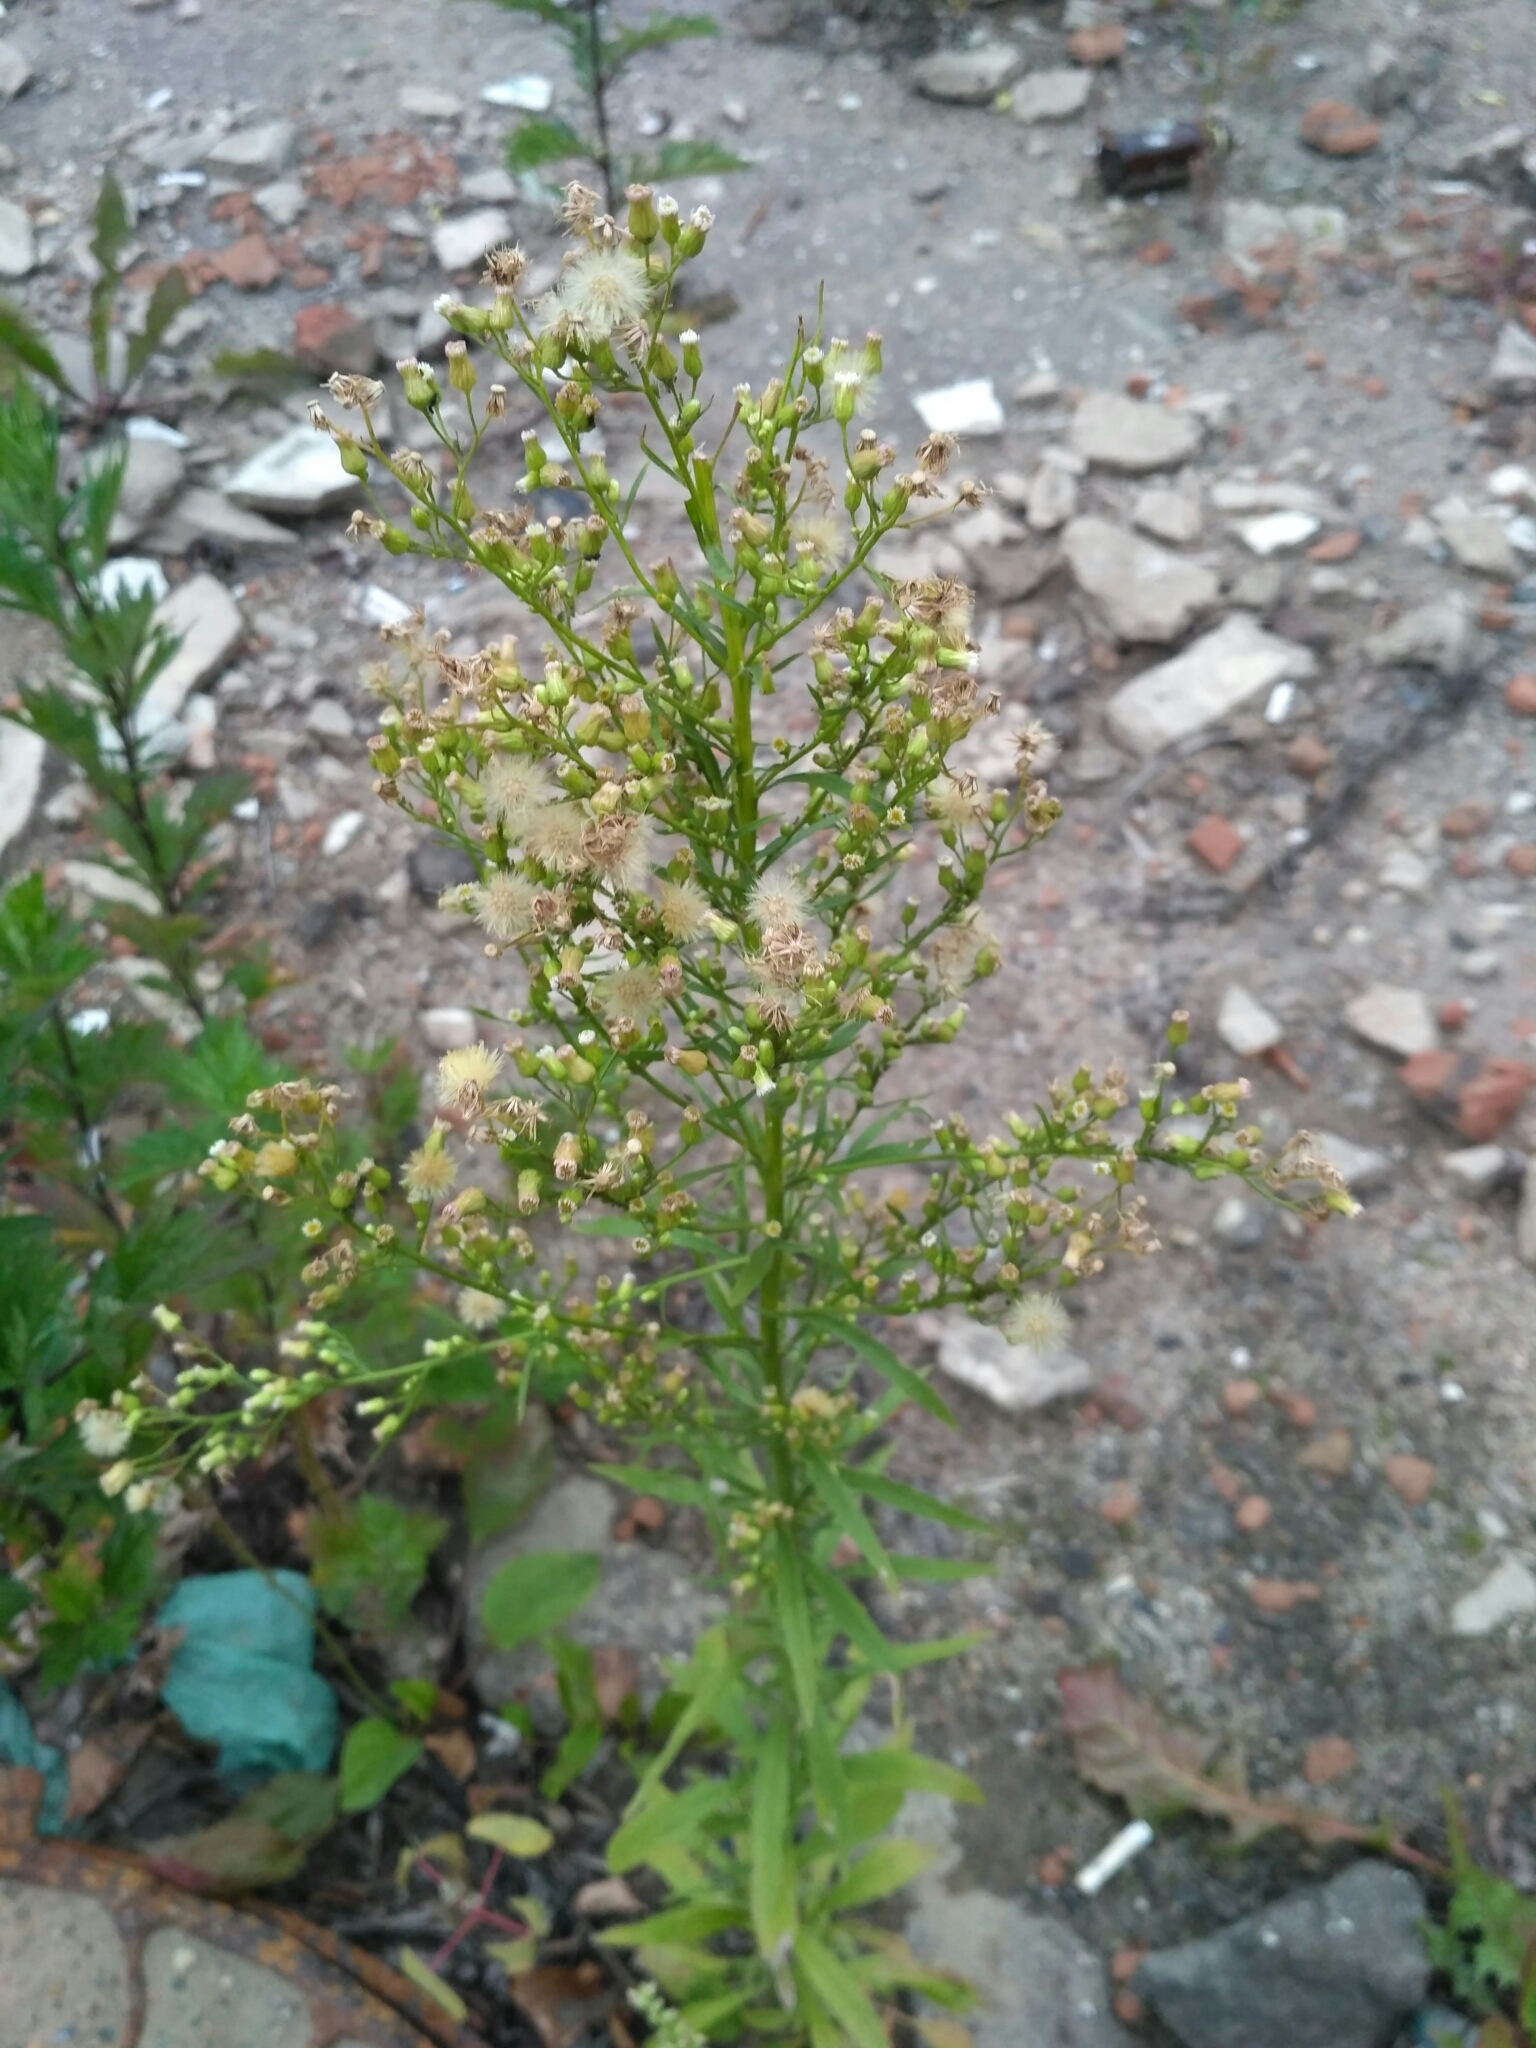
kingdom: Plantae
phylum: Tracheophyta
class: Magnoliopsida
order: Asterales
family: Asteraceae
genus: Erigeron
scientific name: Erigeron canadensis
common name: Canadian fleabane
